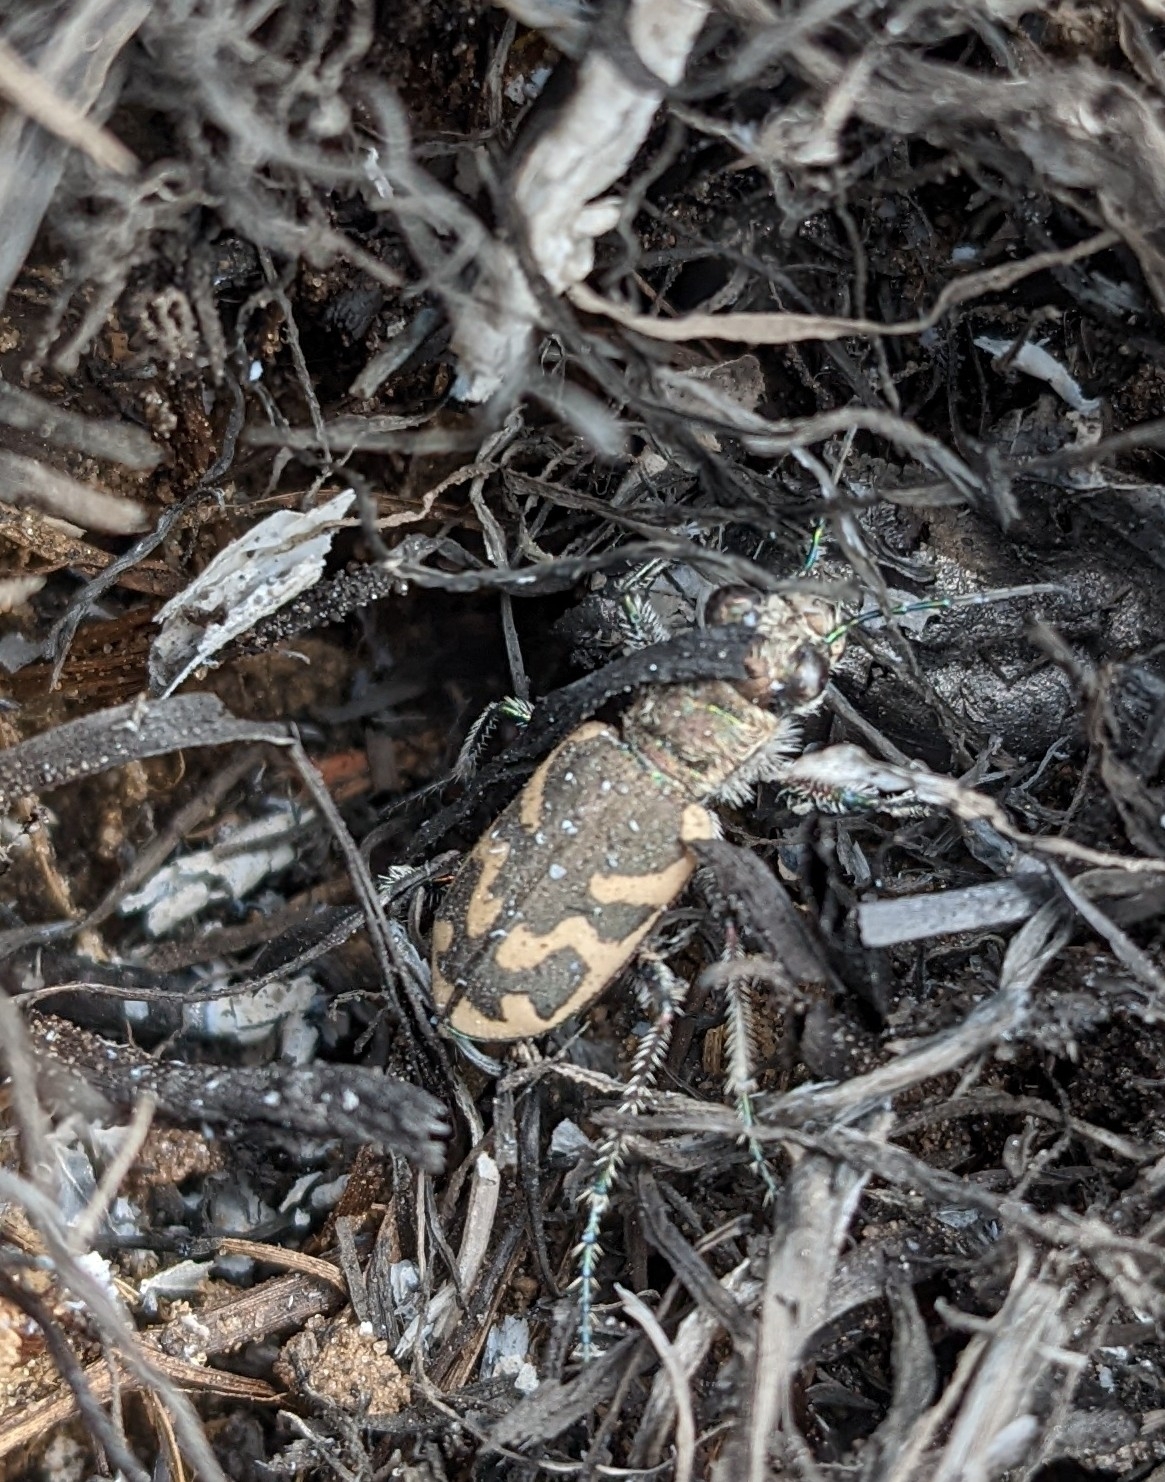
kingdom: Animalia
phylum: Arthropoda
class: Insecta
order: Coleoptera
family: Carabidae
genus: Cicindela
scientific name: Cicindela formosa
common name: Big sand tiger beetle
